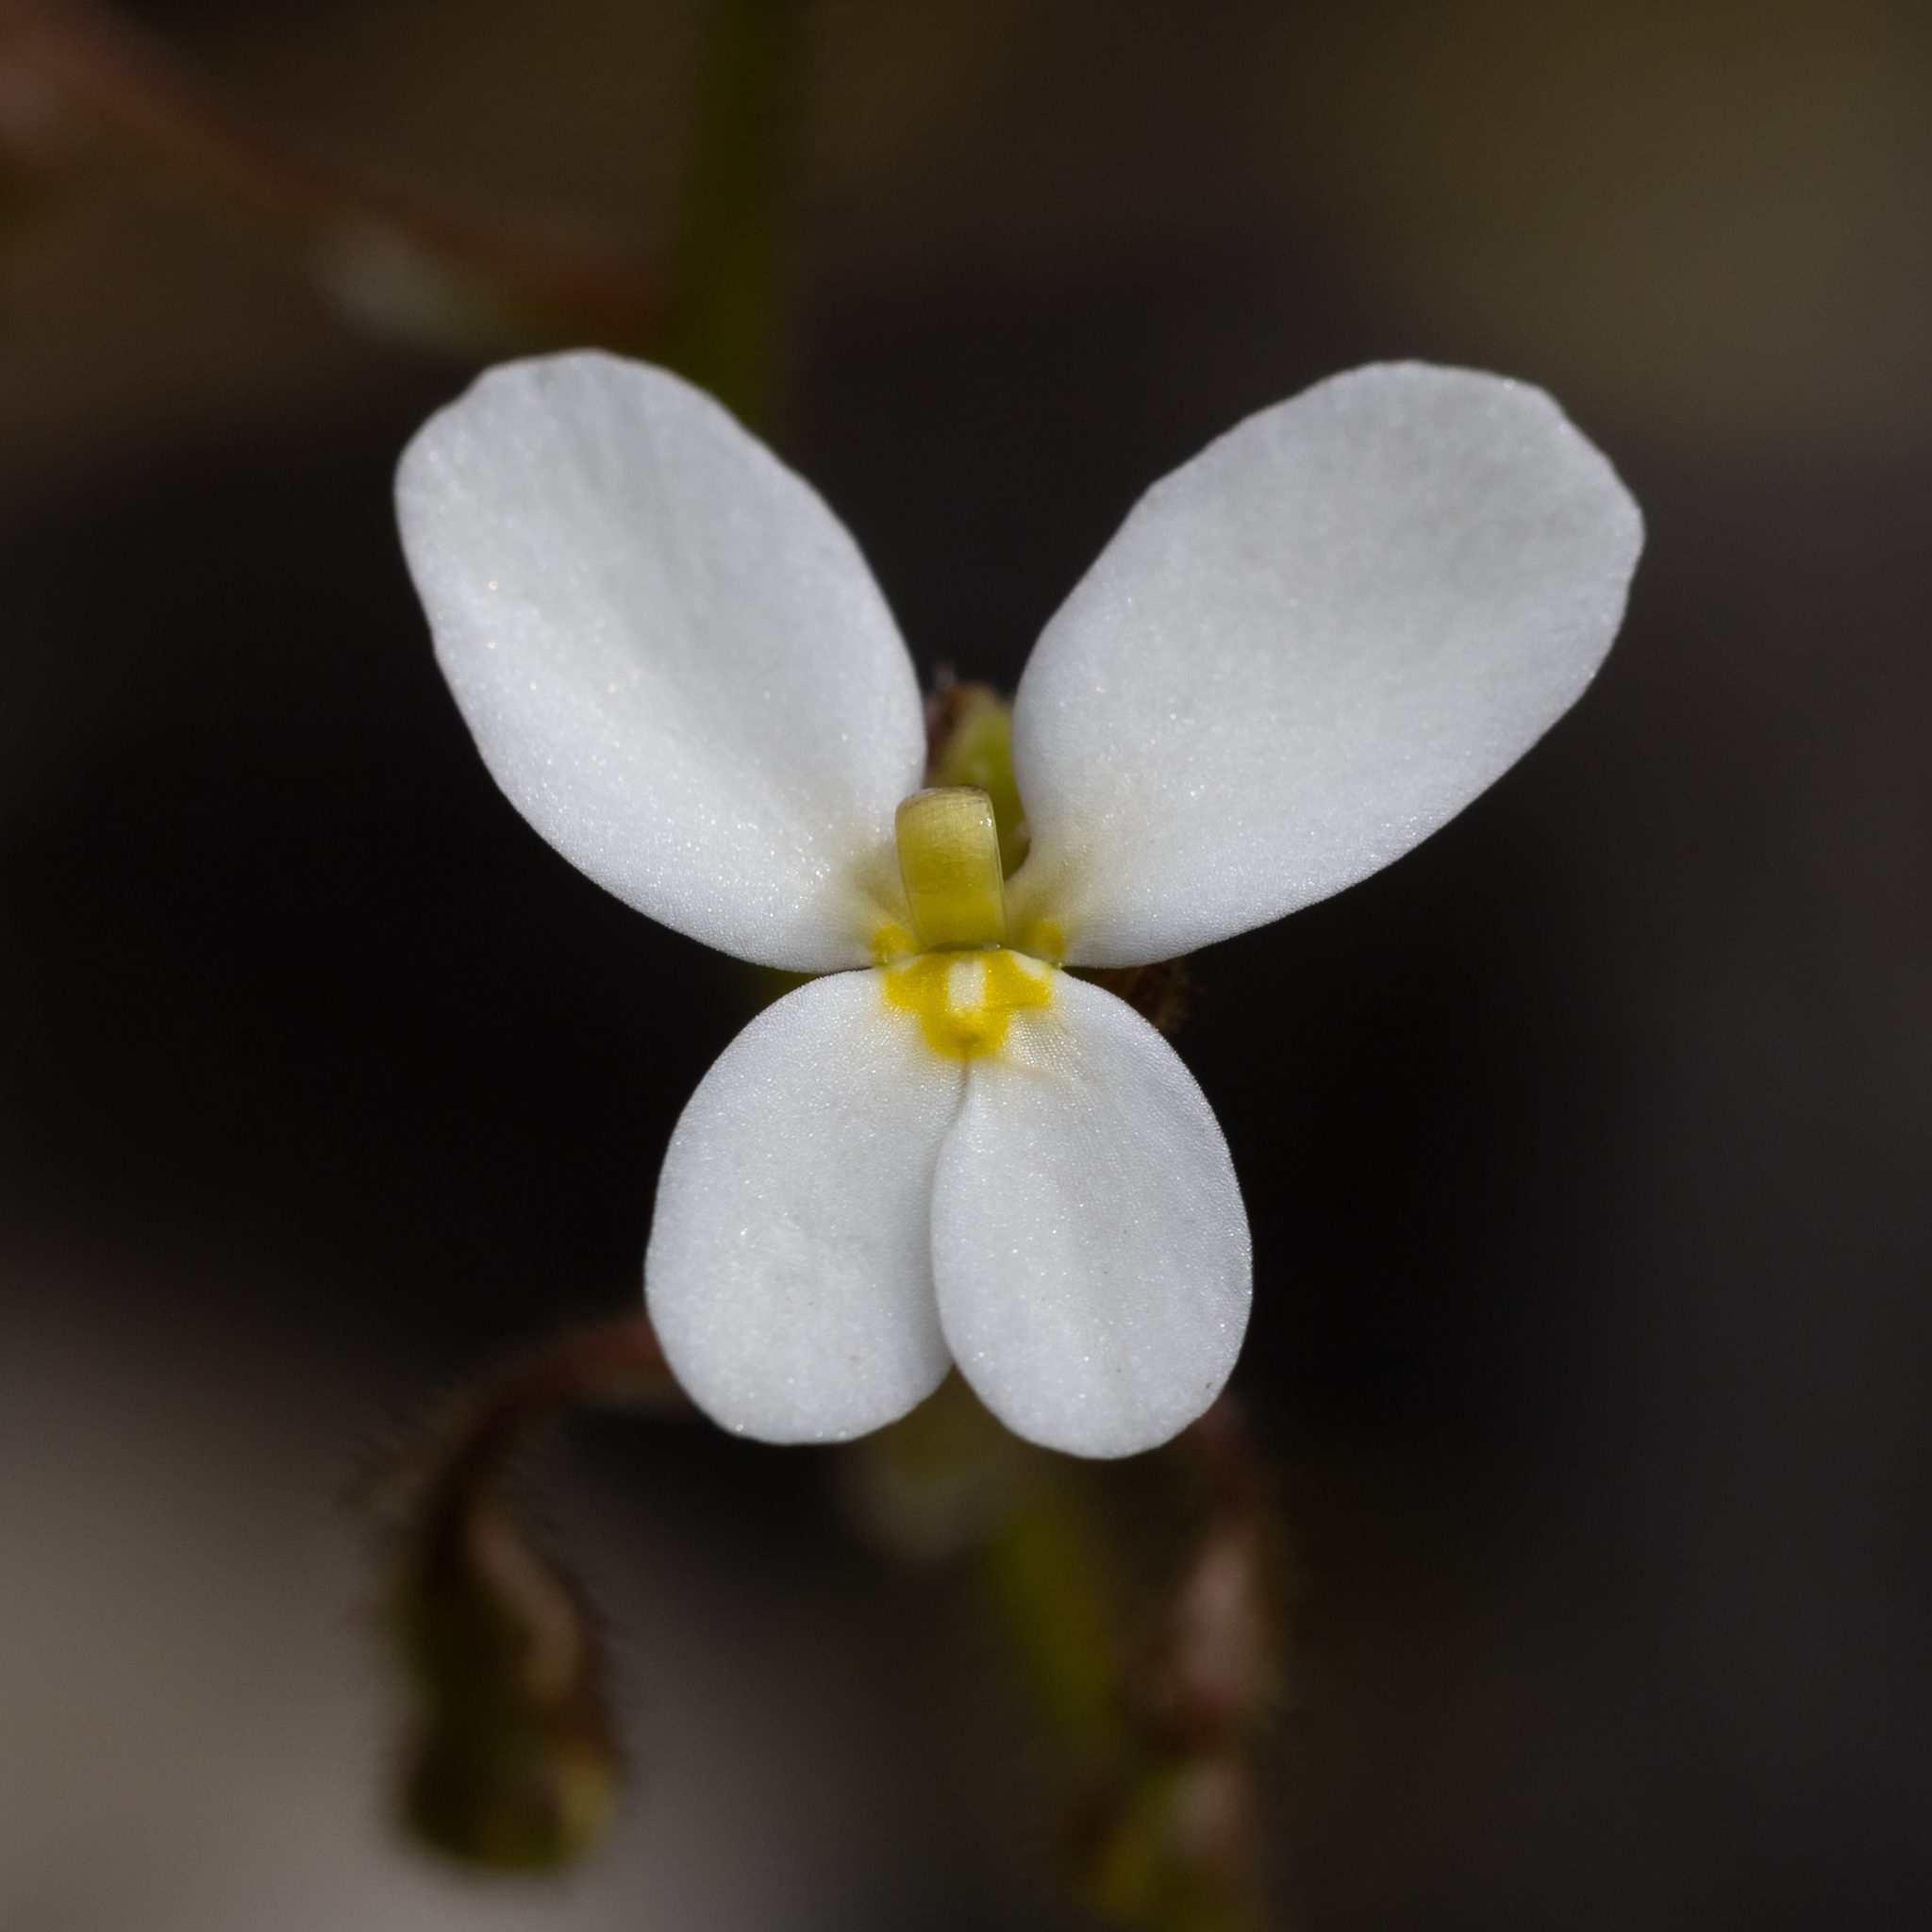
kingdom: Plantae
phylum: Tracheophyta
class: Magnoliopsida
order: Asterales
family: Stylidiaceae
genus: Stylidium
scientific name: Stylidium piliferum
